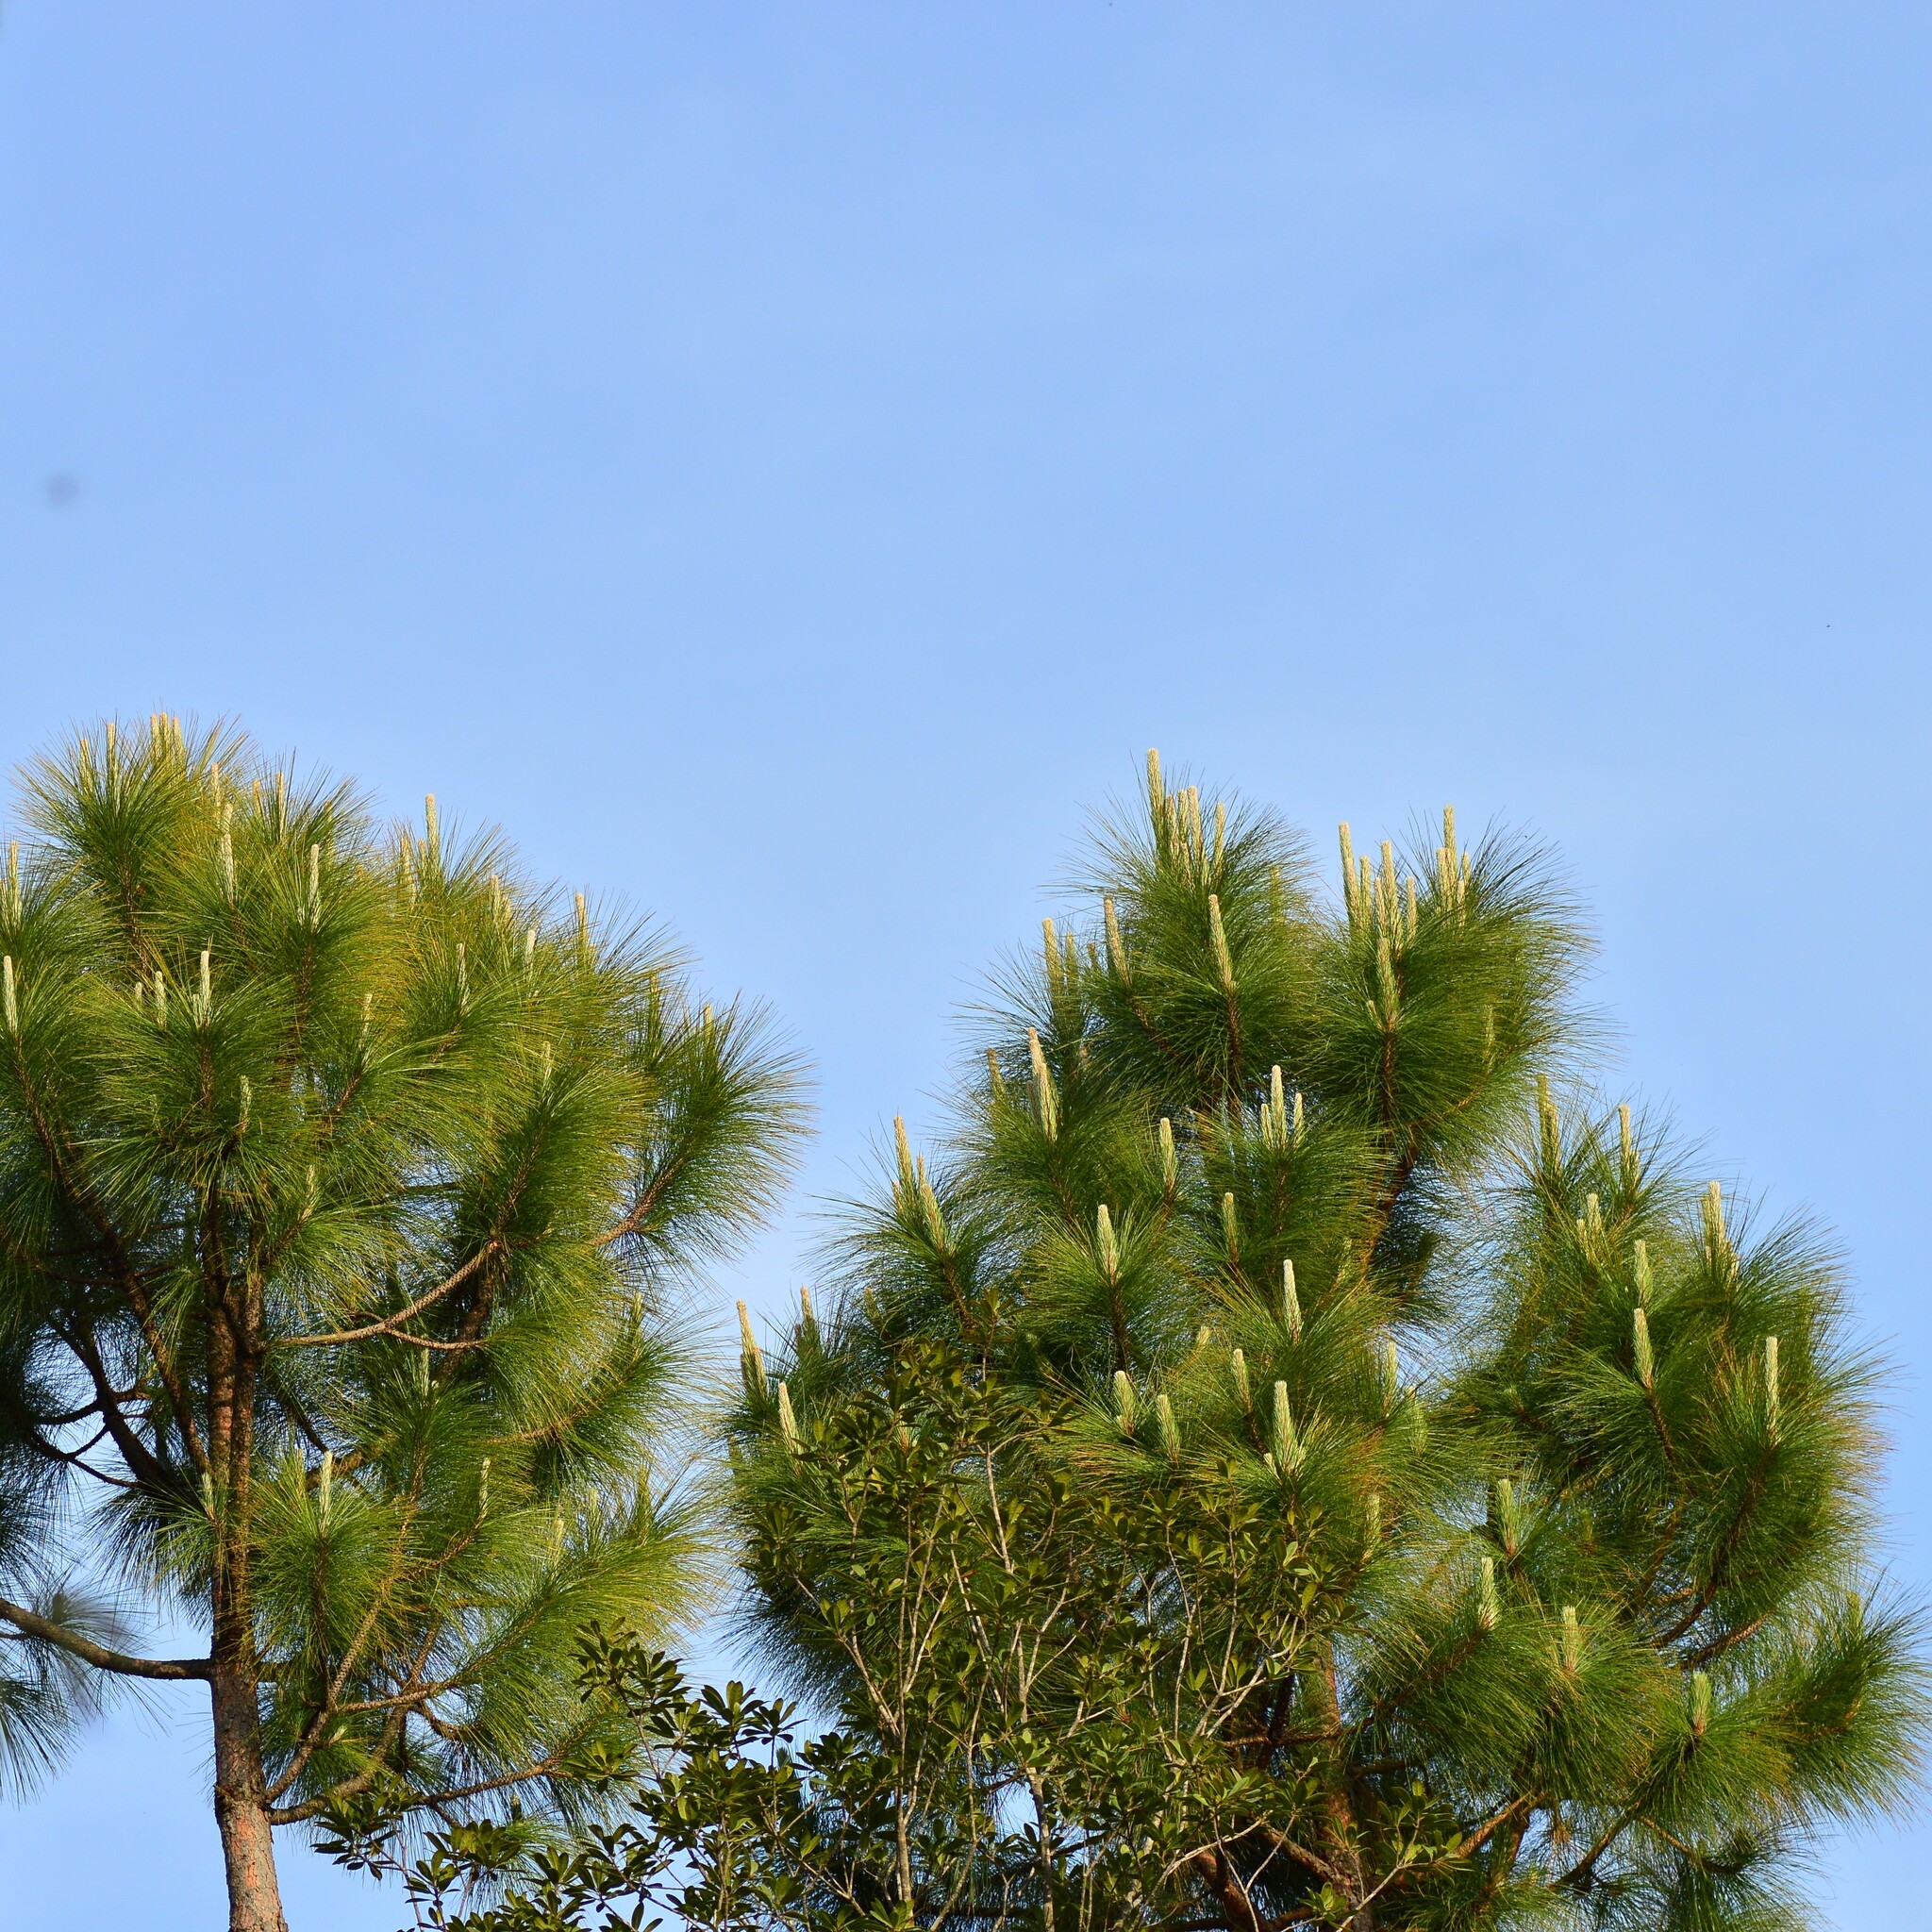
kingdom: Plantae
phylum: Tracheophyta
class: Pinopsida
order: Pinales
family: Pinaceae
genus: Pinus
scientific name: Pinus roxburghii
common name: Chir pine
